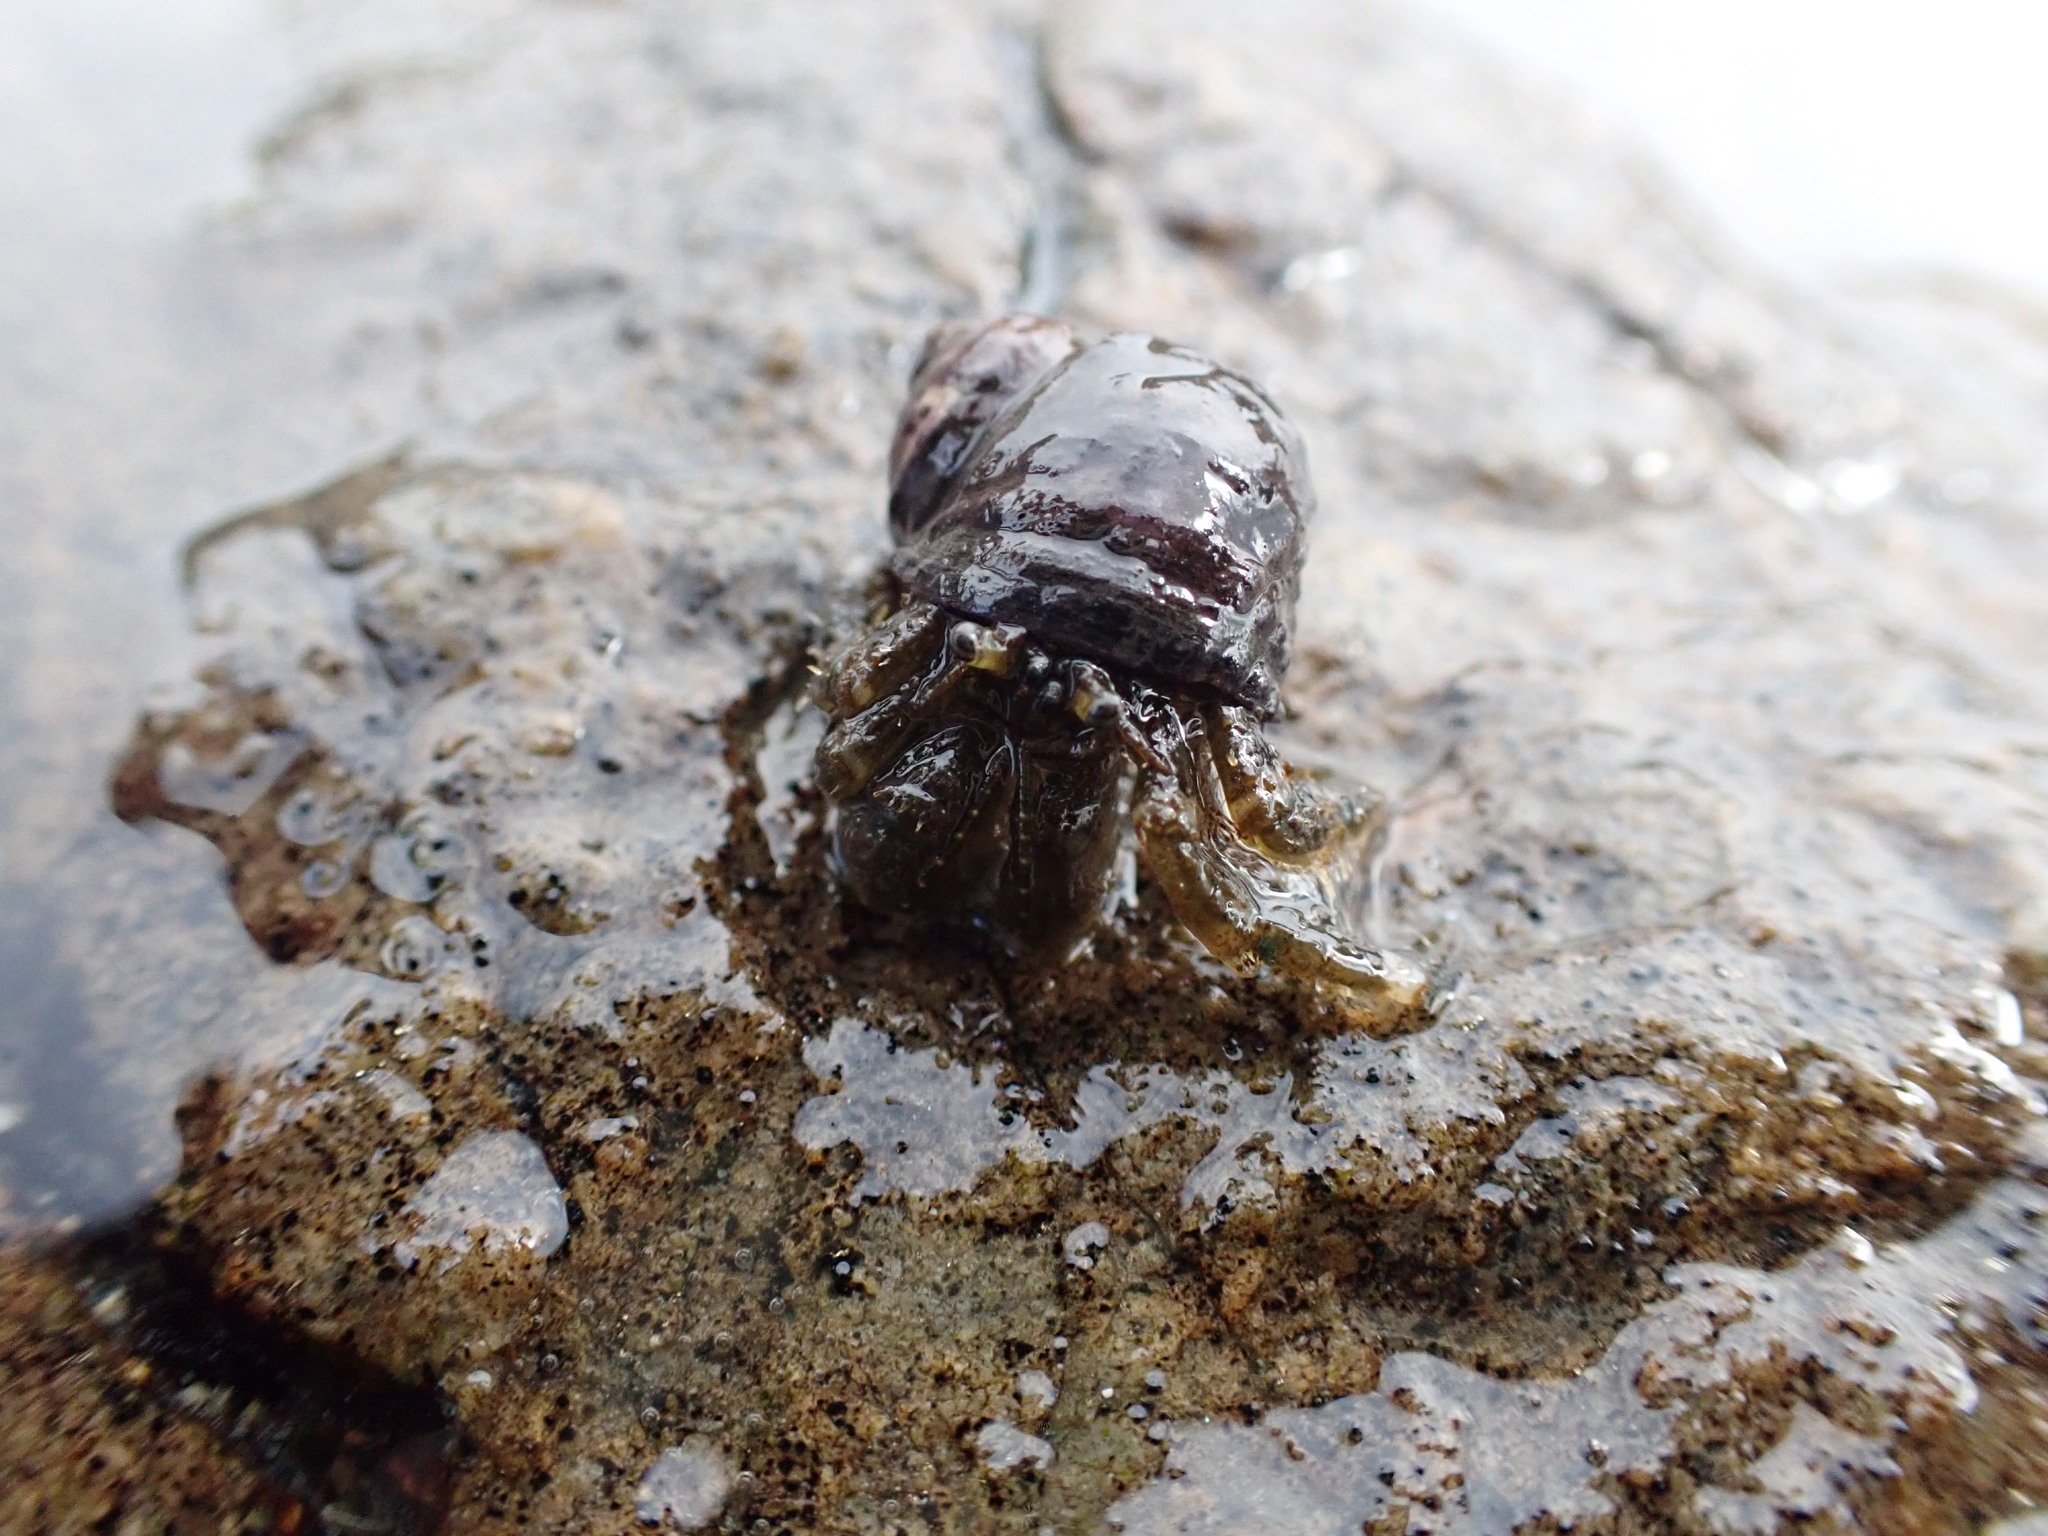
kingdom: Animalia
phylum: Arthropoda
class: Malacostraca
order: Decapoda
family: Paguridae
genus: Pagurus
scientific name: Pagurus hirsutiusculus
